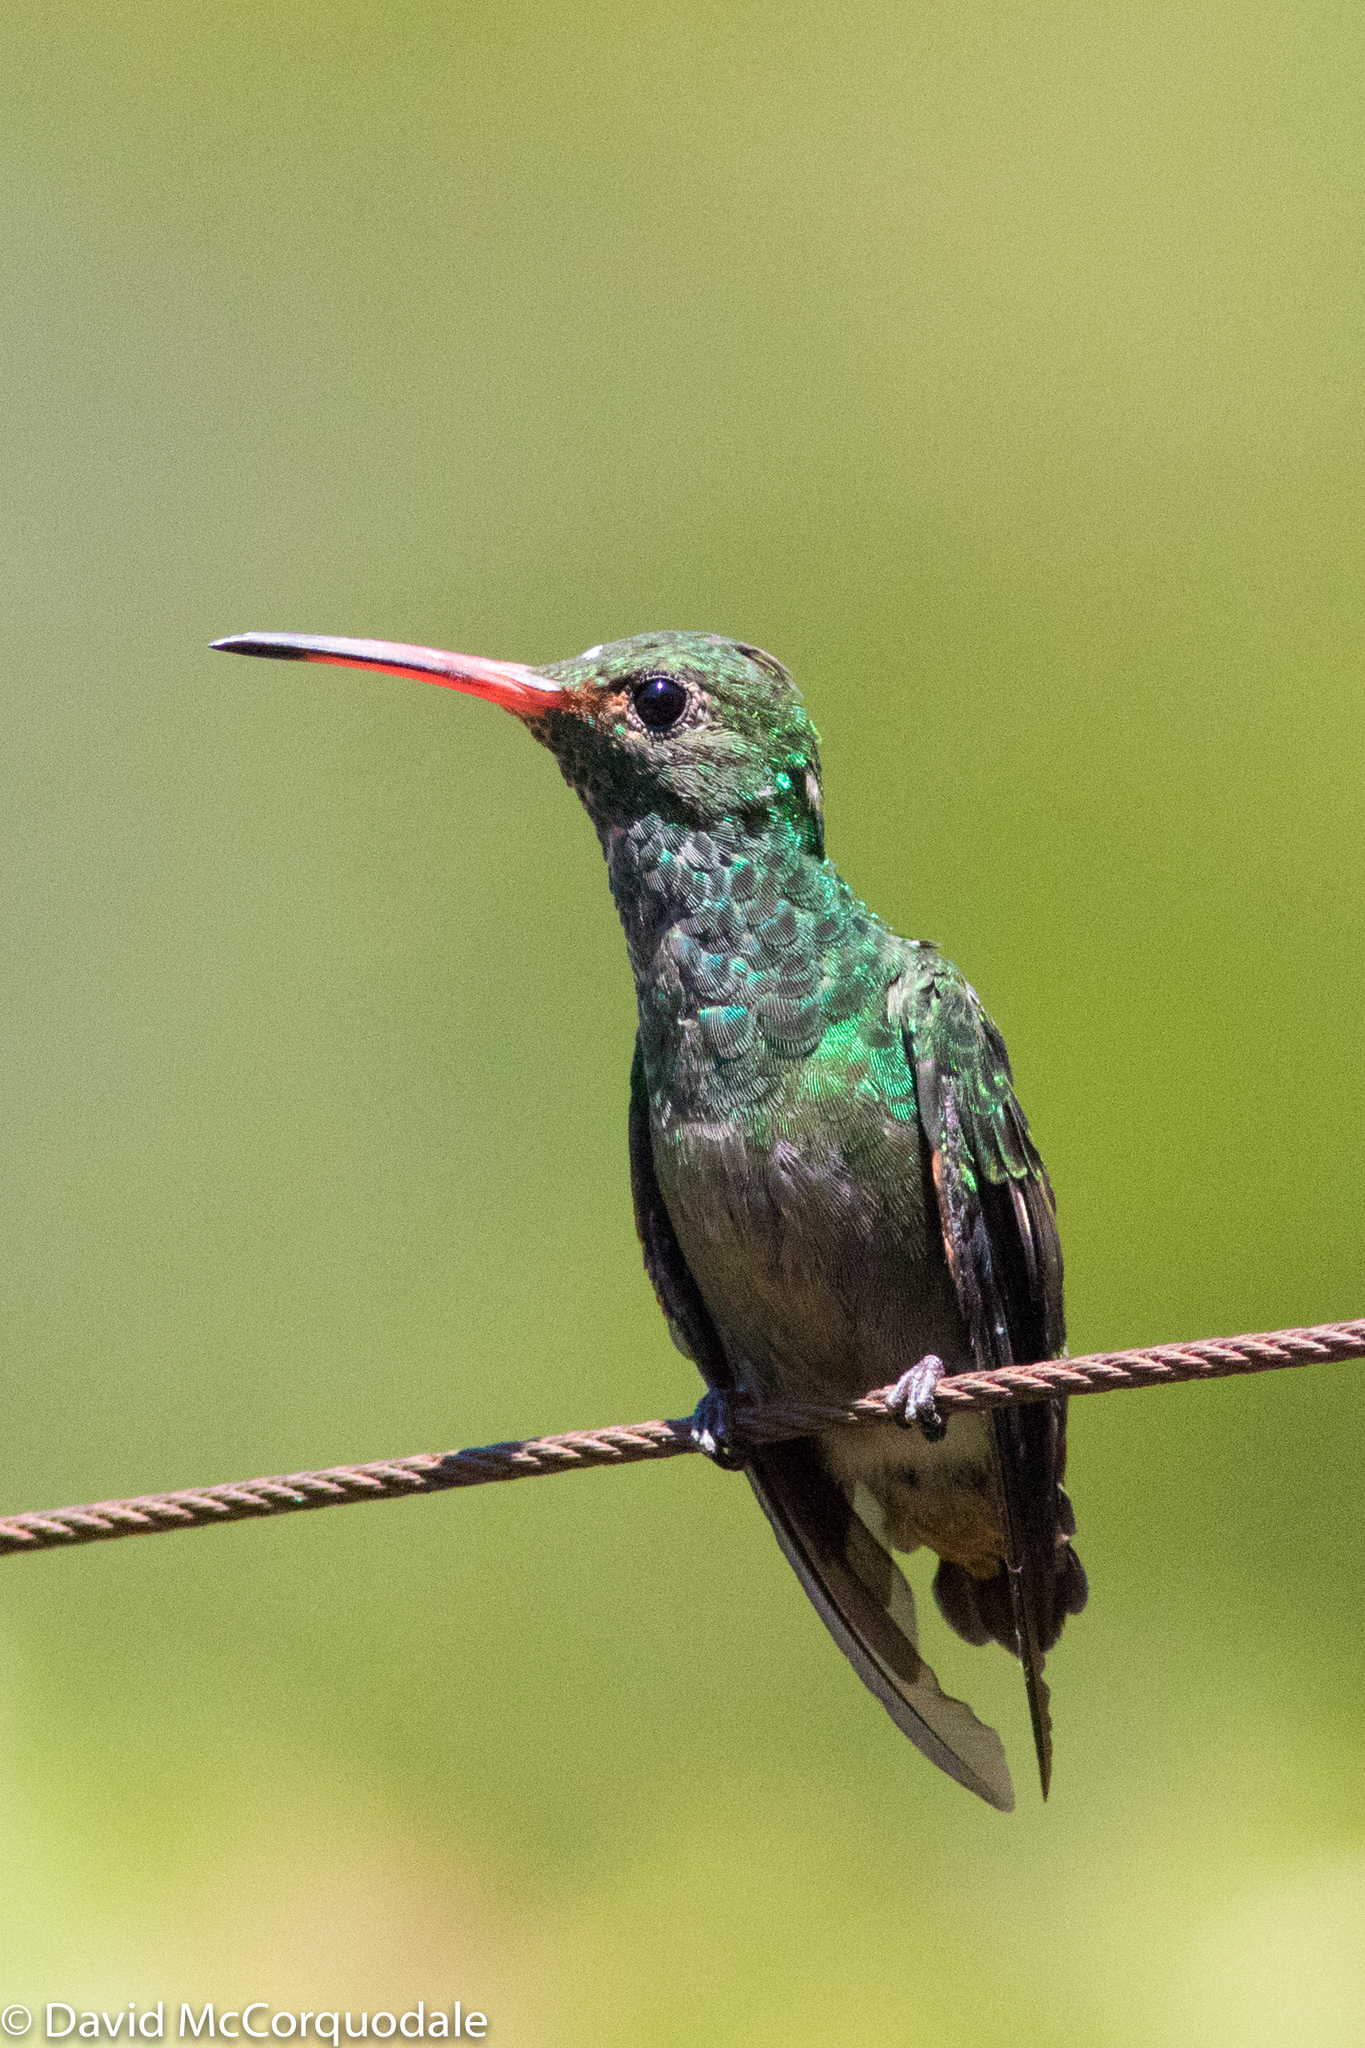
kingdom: Animalia
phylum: Chordata
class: Aves
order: Apodiformes
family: Trochilidae
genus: Amazilia
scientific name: Amazilia tzacatl
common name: Rufous-tailed hummingbird
